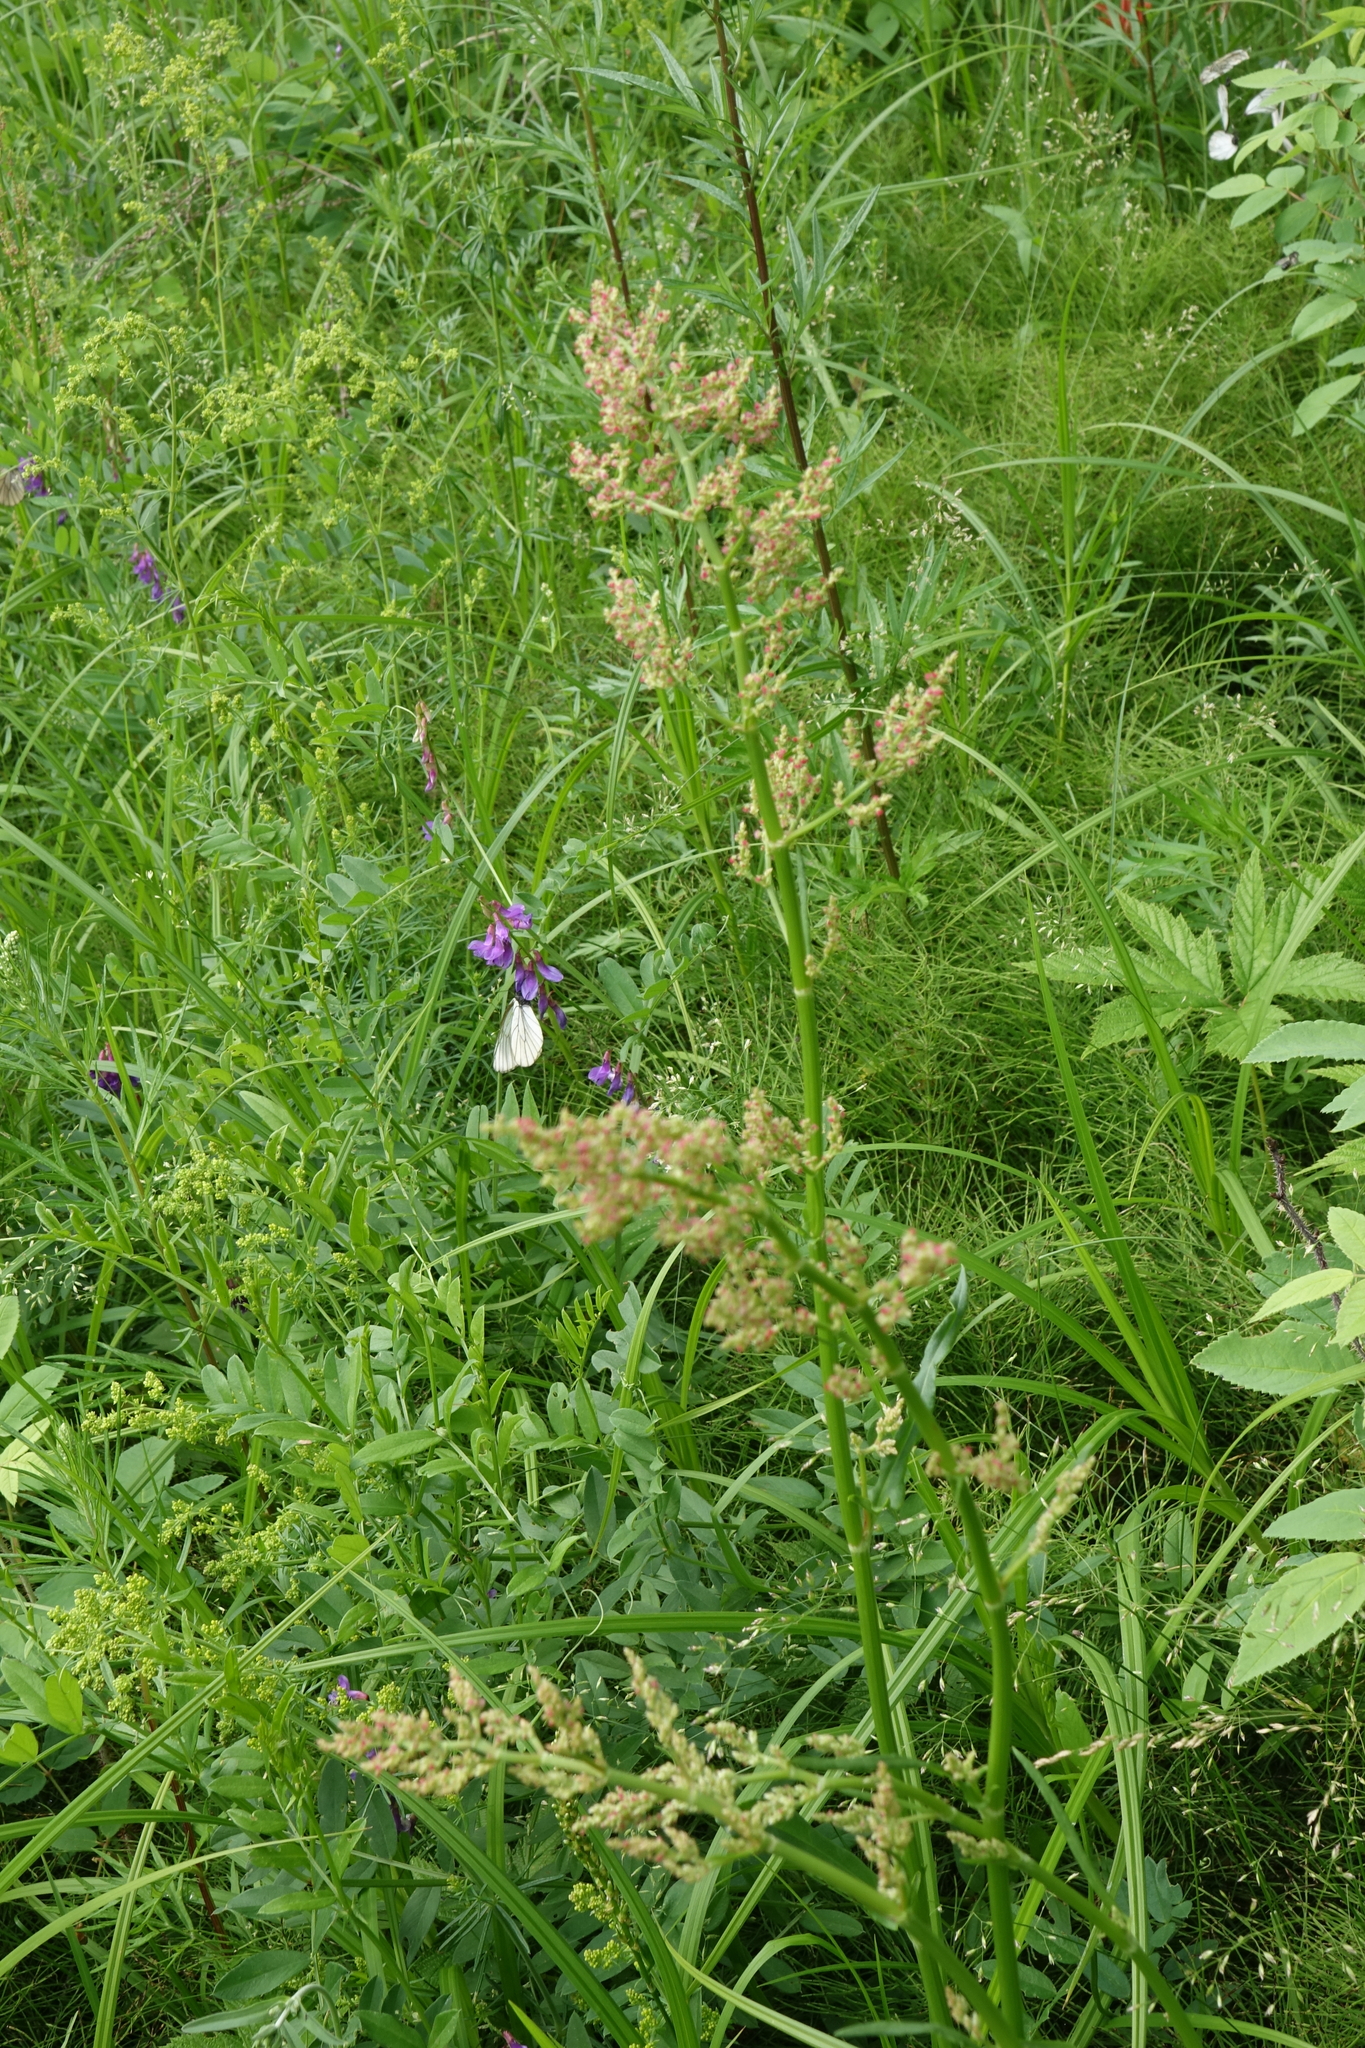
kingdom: Plantae
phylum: Tracheophyta
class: Magnoliopsida
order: Caryophyllales
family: Polygonaceae
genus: Rumex
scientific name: Rumex thyrsiflorus
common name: Garden sorrel
